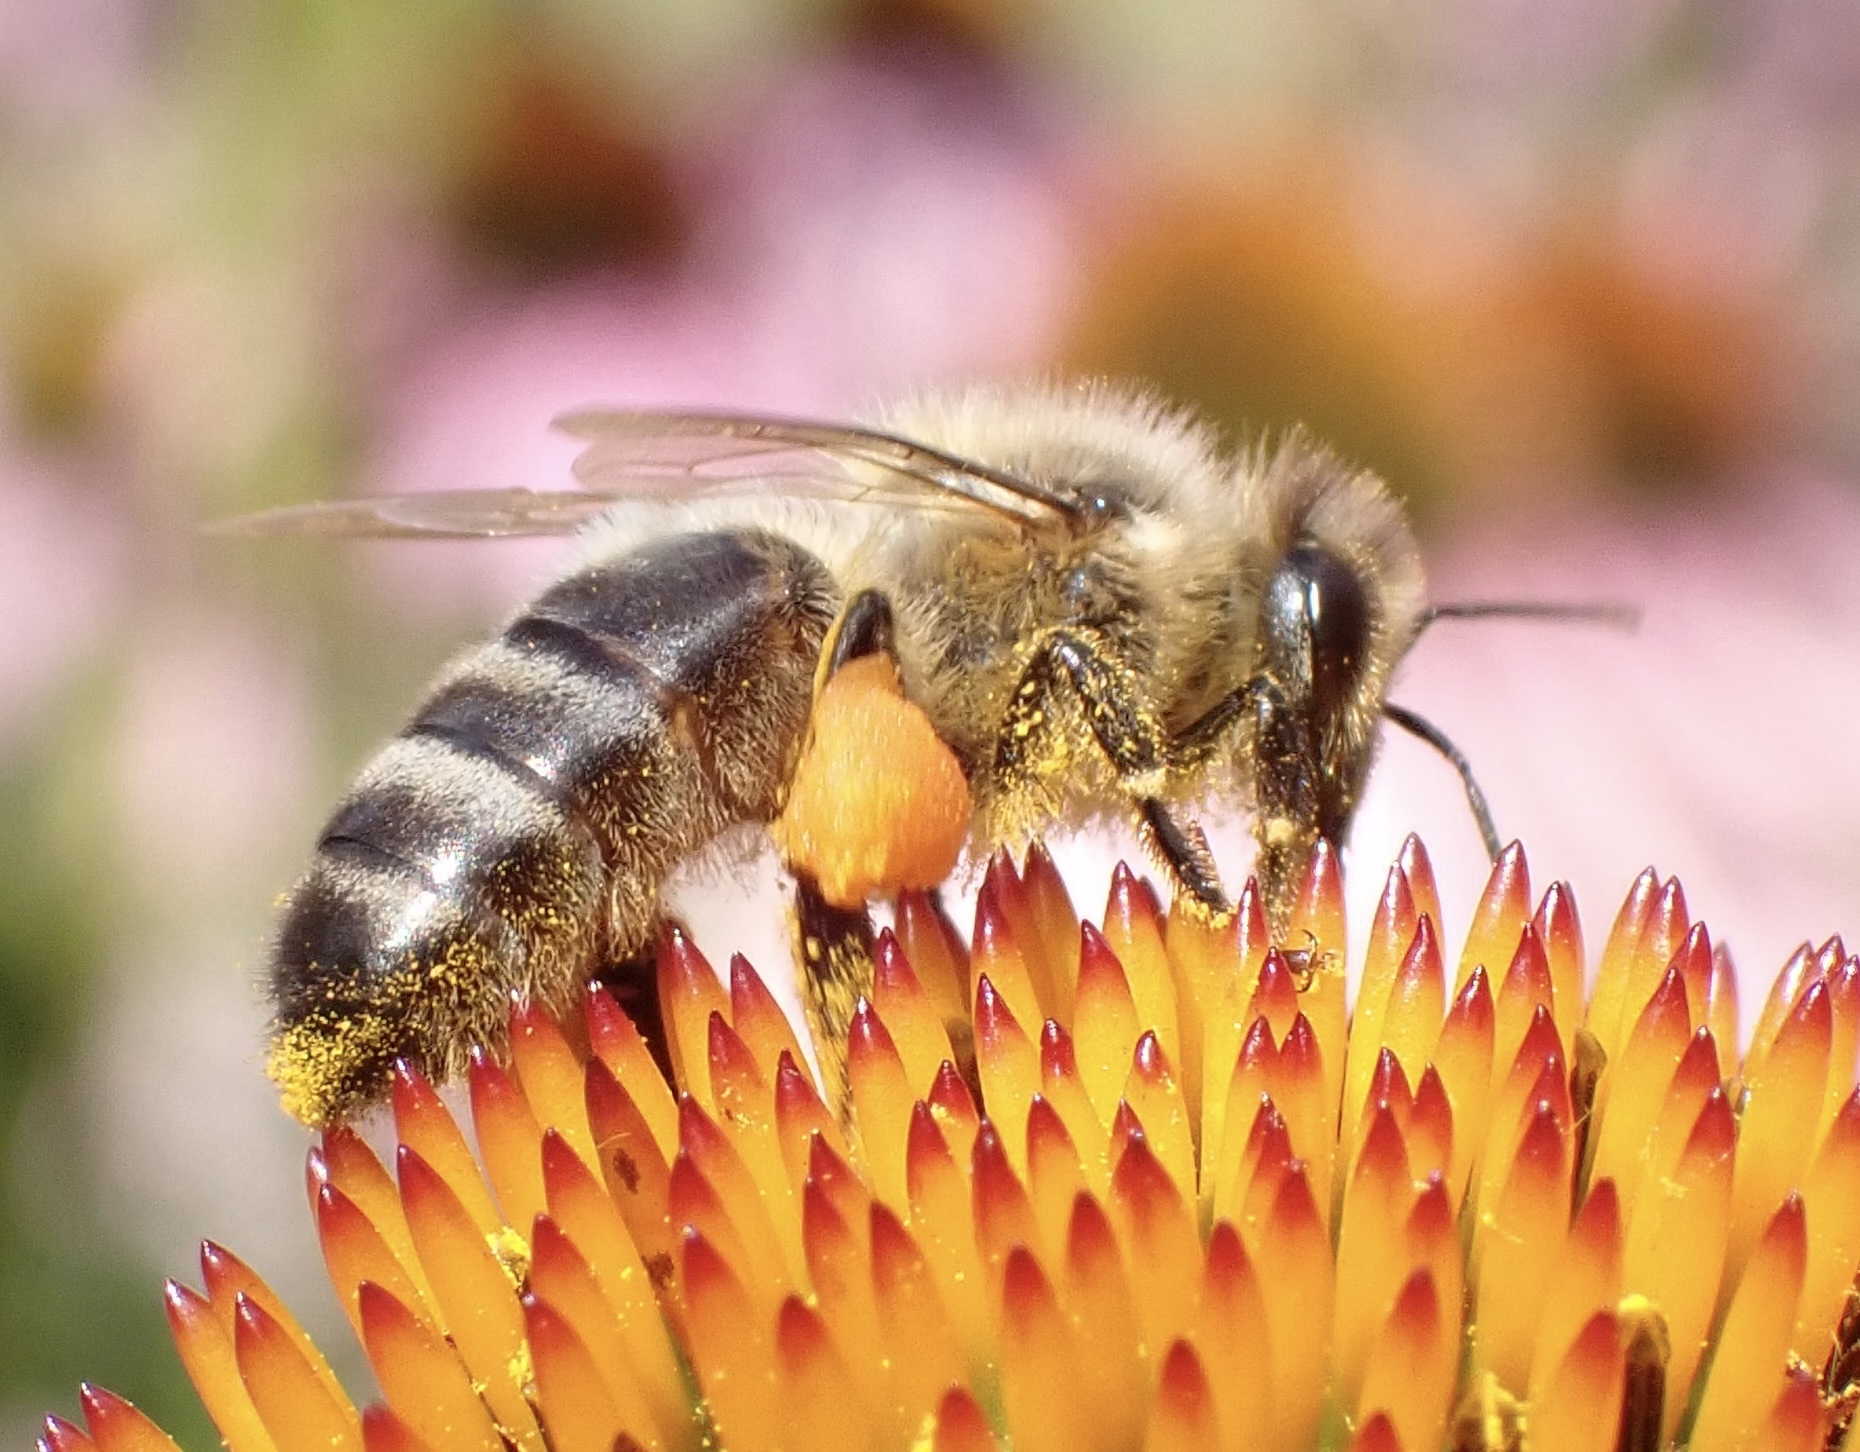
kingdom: Animalia
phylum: Arthropoda
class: Insecta
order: Hymenoptera
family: Apidae
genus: Apis
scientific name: Apis mellifera
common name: Honey bee
